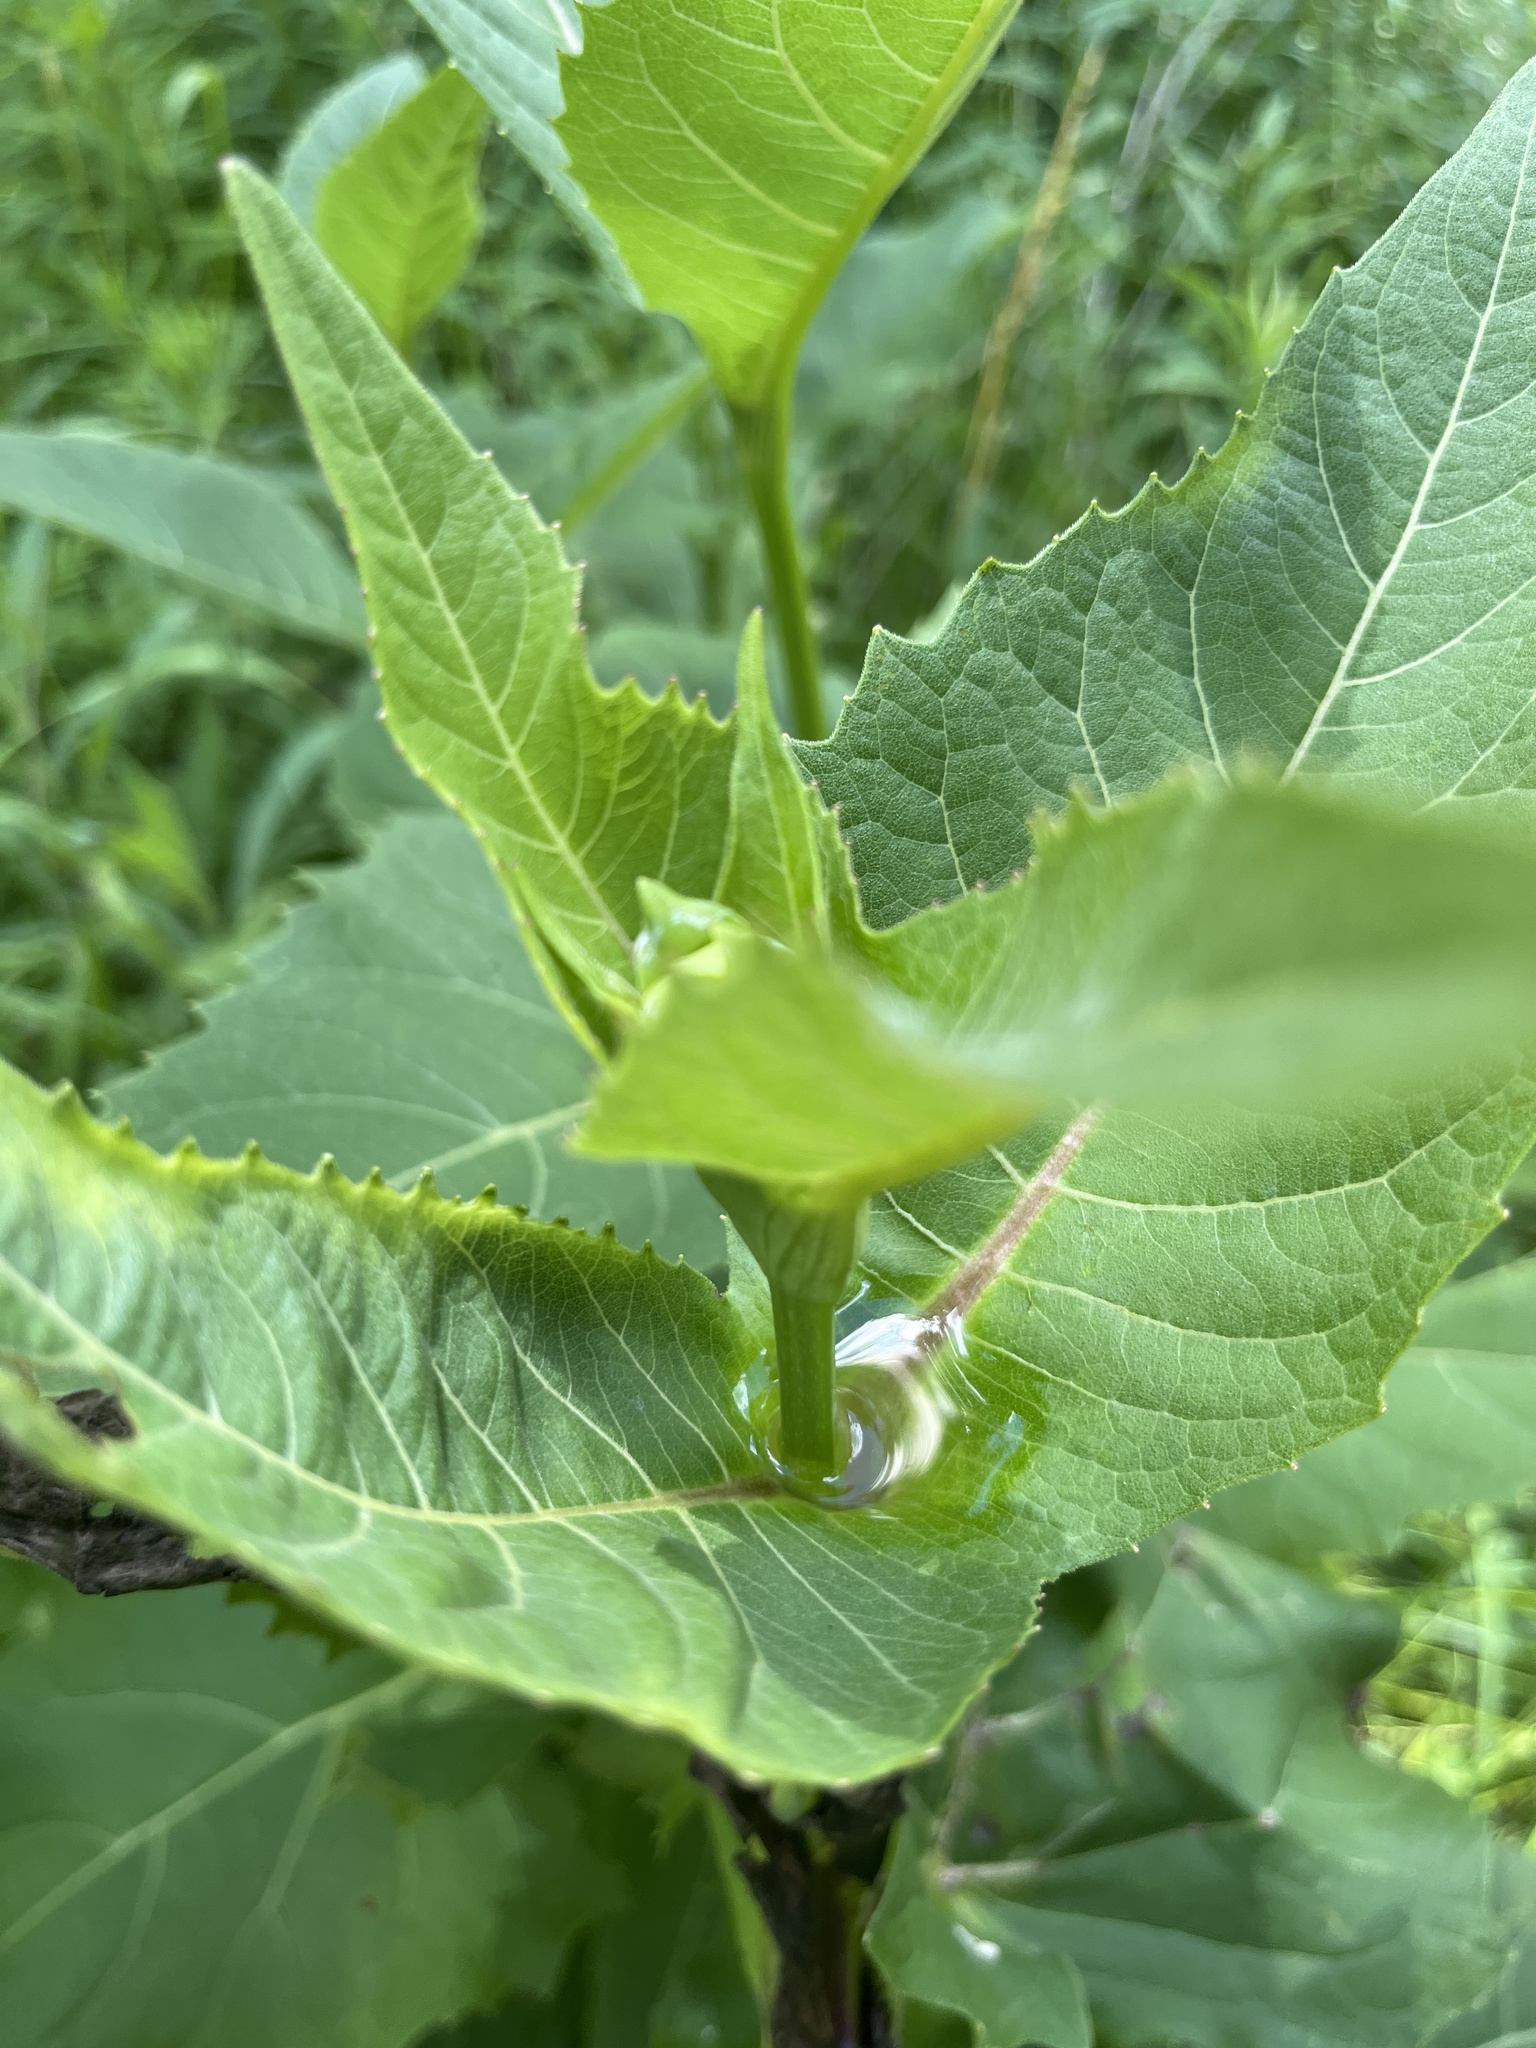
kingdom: Plantae
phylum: Tracheophyta
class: Magnoliopsida
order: Asterales
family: Asteraceae
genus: Silphium
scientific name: Silphium perfoliatum
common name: Cup-plant
